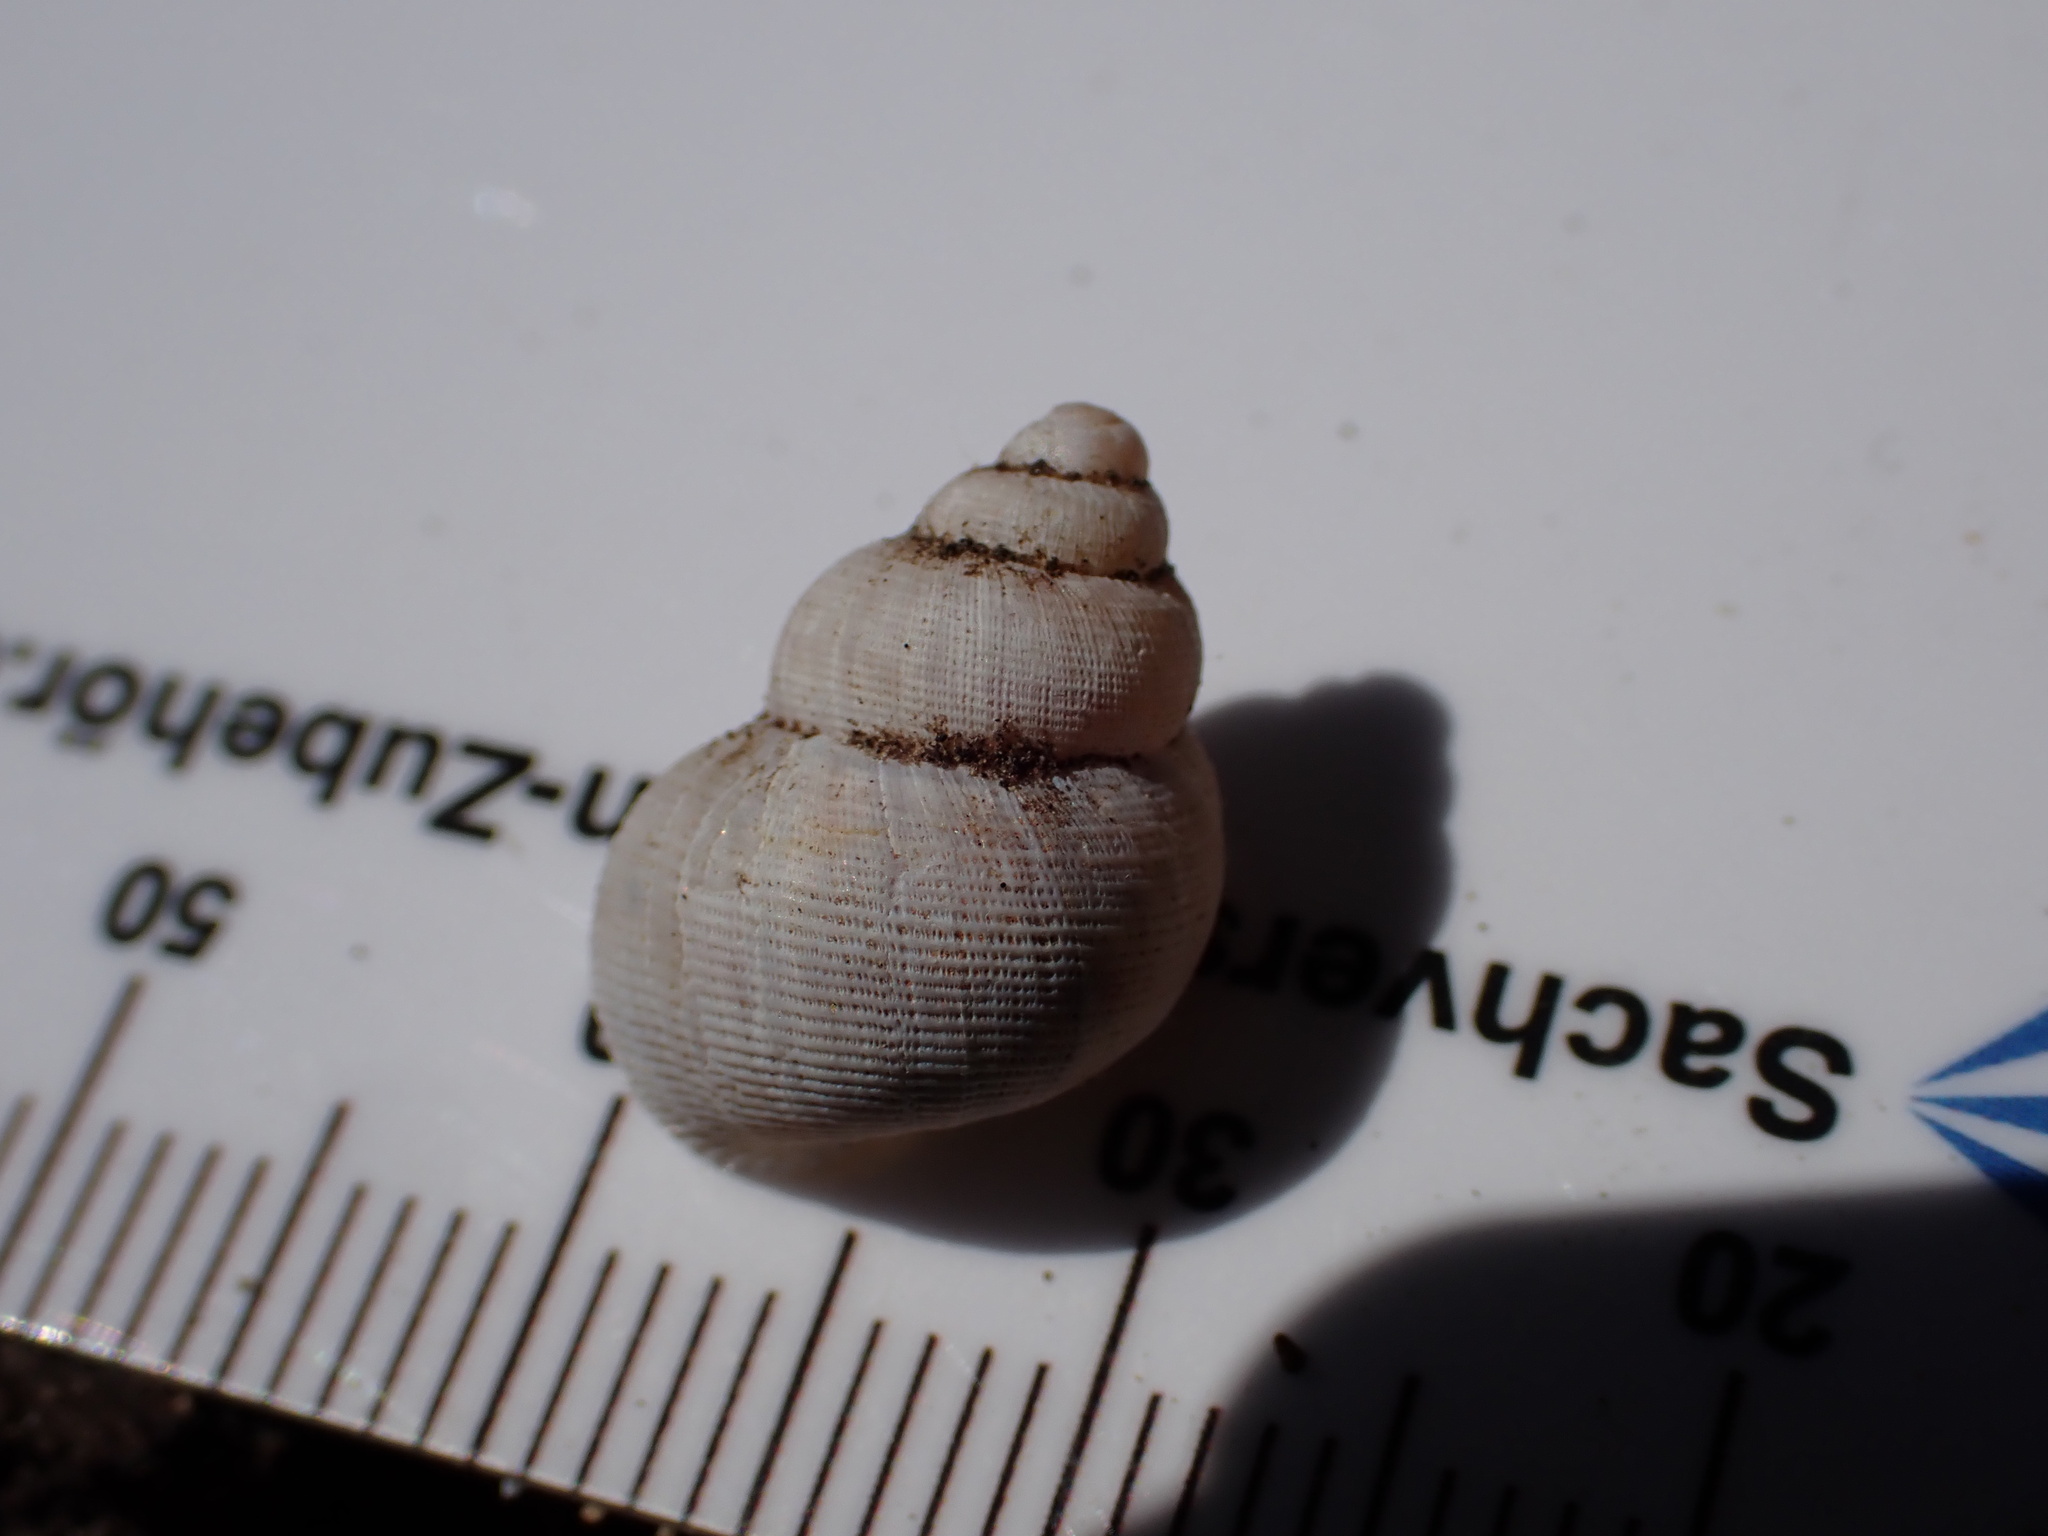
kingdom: Animalia
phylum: Mollusca
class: Gastropoda
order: Littorinimorpha
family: Pomatiidae
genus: Pomatias
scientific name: Pomatias elegans
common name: Red-mouthed snail
